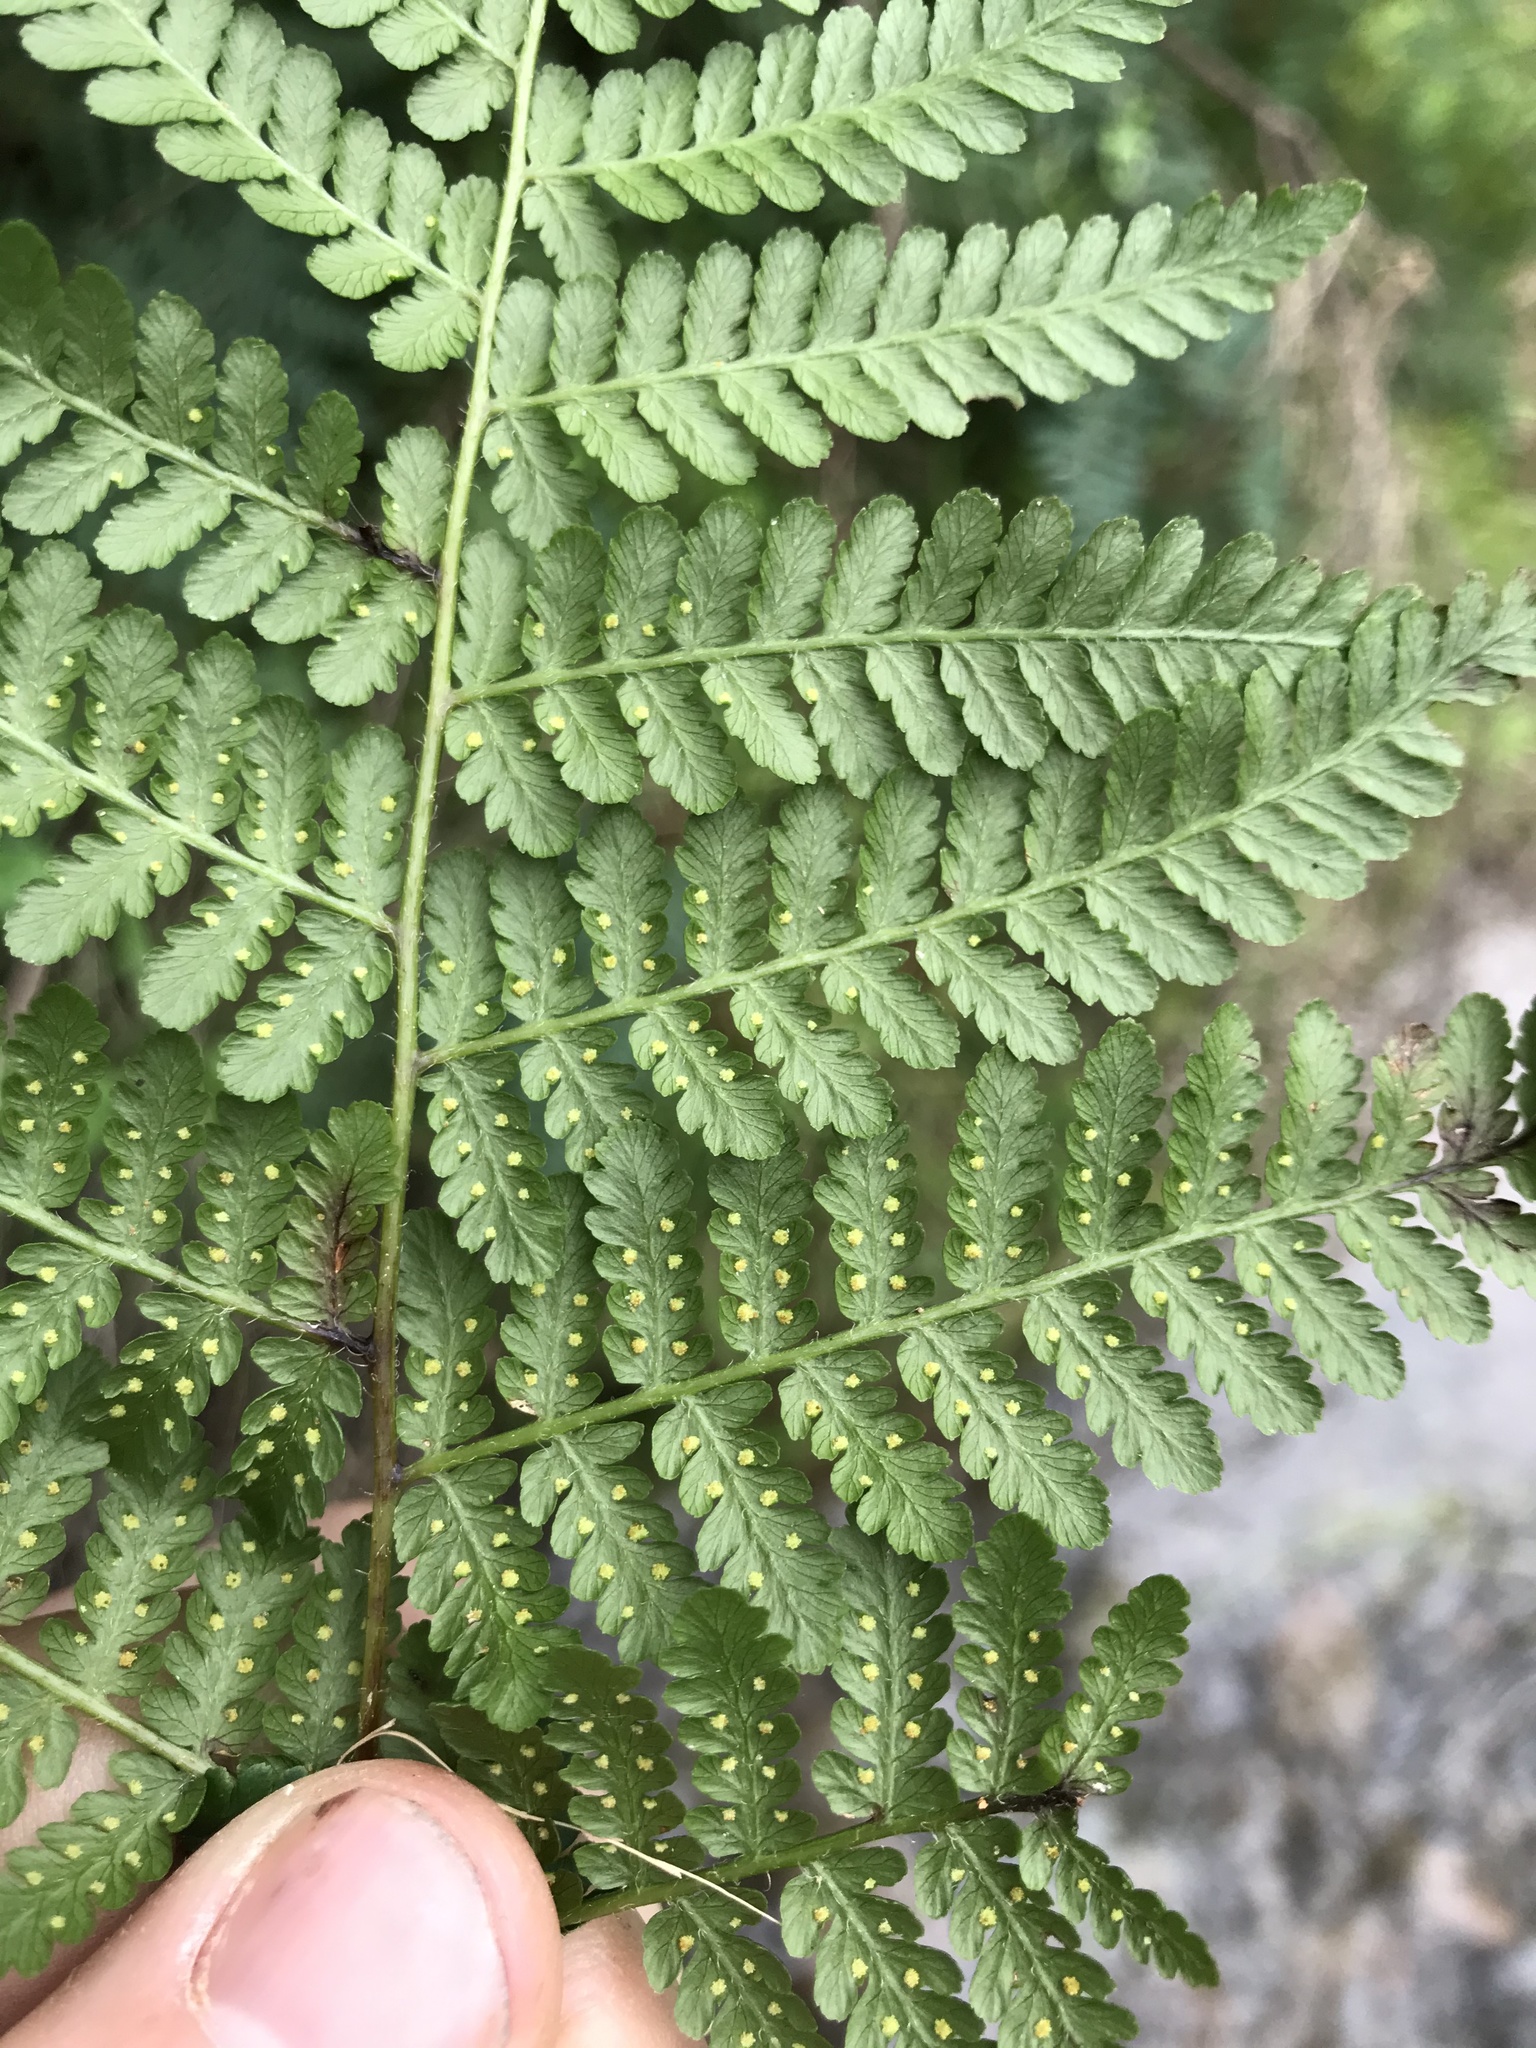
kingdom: Plantae
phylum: Tracheophyta
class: Polypodiopsida
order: Polypodiales
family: Dennstaedtiaceae
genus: Hypolepis
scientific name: Hypolepis ambigua
